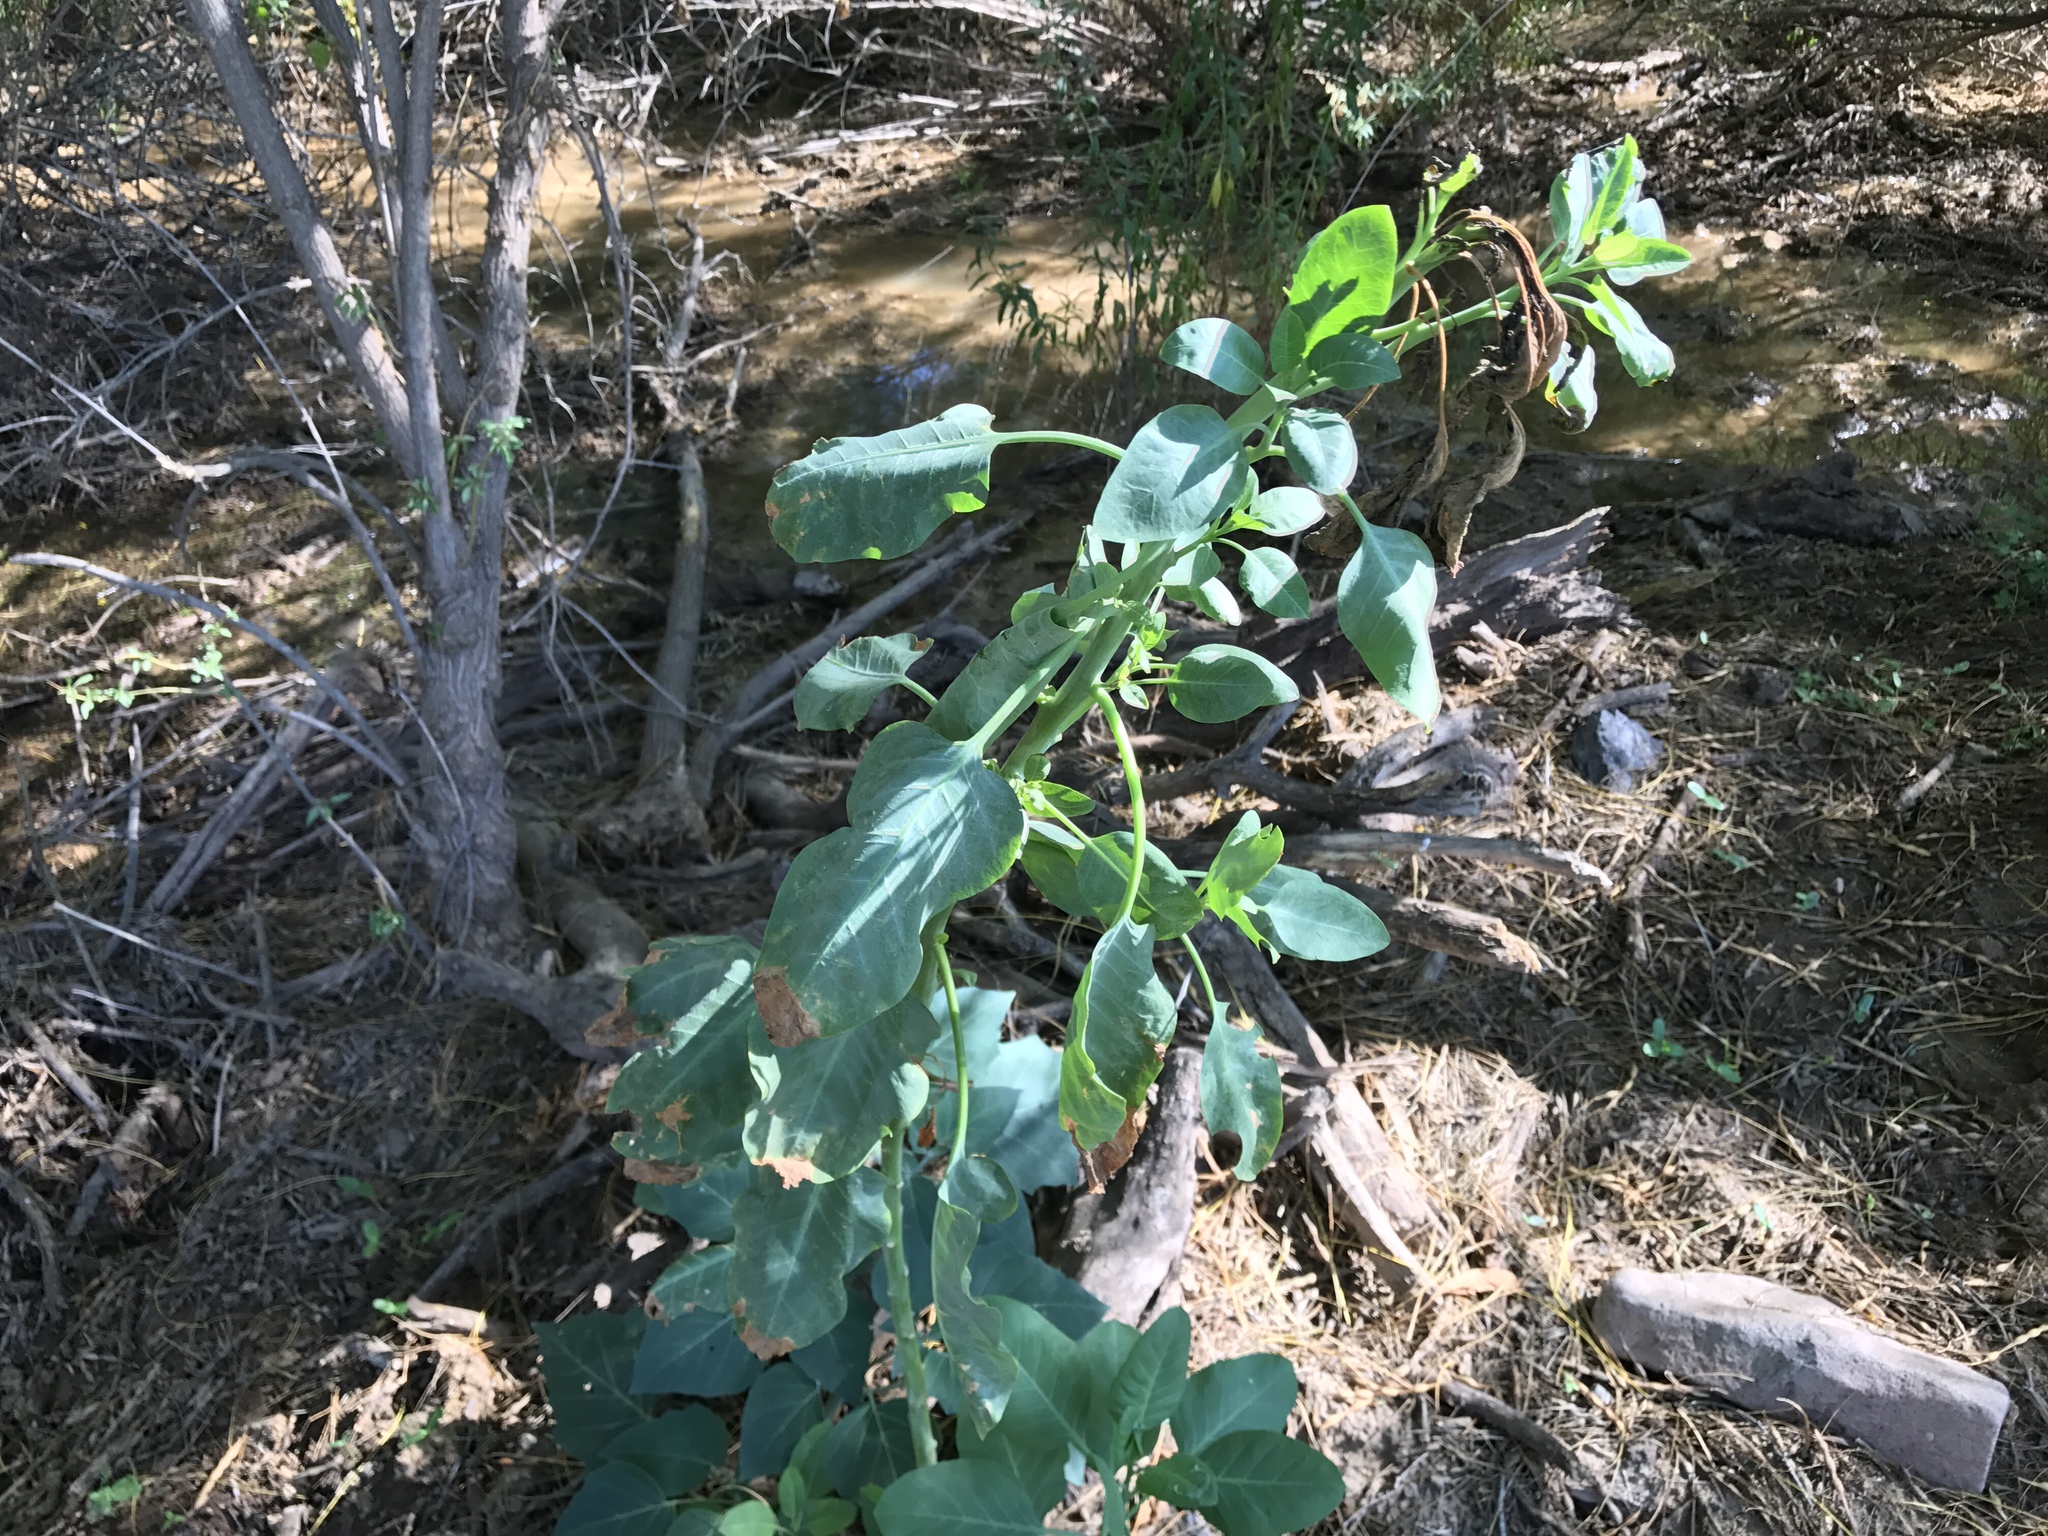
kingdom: Plantae
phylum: Tracheophyta
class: Magnoliopsida
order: Solanales
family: Solanaceae
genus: Nicotiana
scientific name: Nicotiana glauca
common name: Tree tobacco
